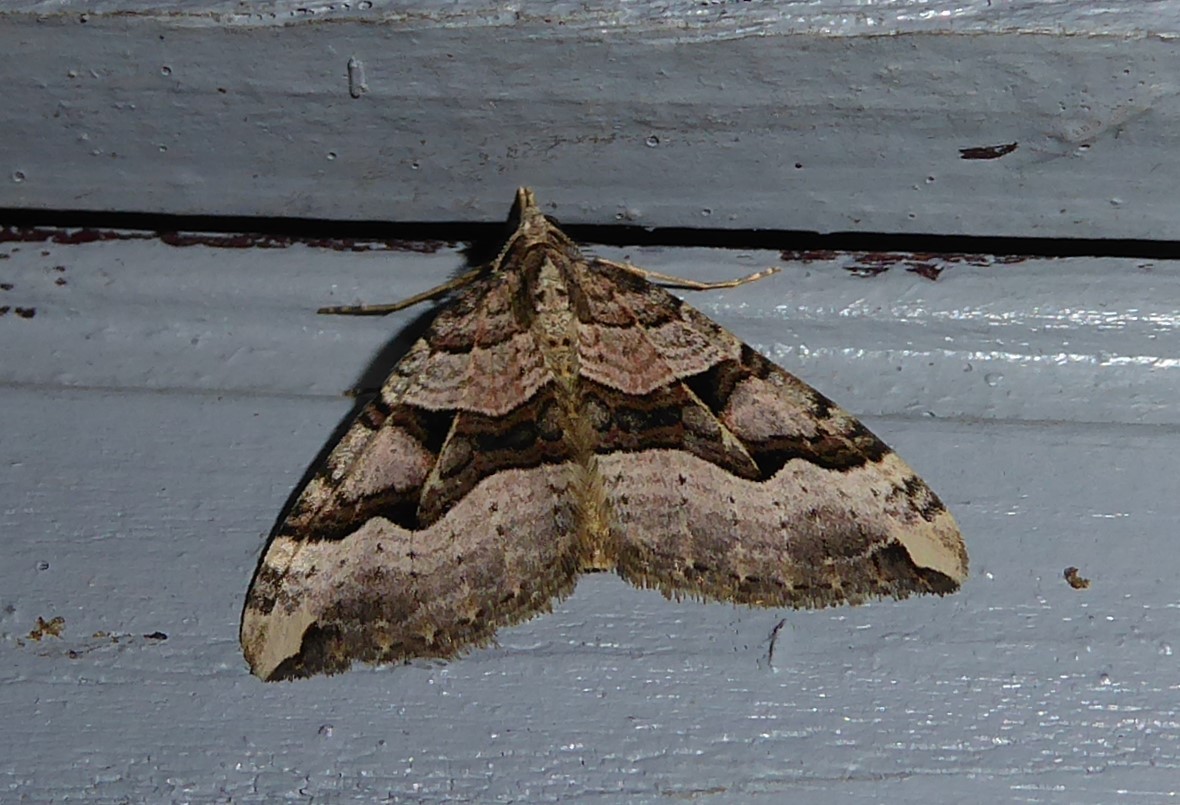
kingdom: Animalia
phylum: Arthropoda
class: Insecta
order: Lepidoptera
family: Geometridae
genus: Xanthorhoe
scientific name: Xanthorhoe semifissata
